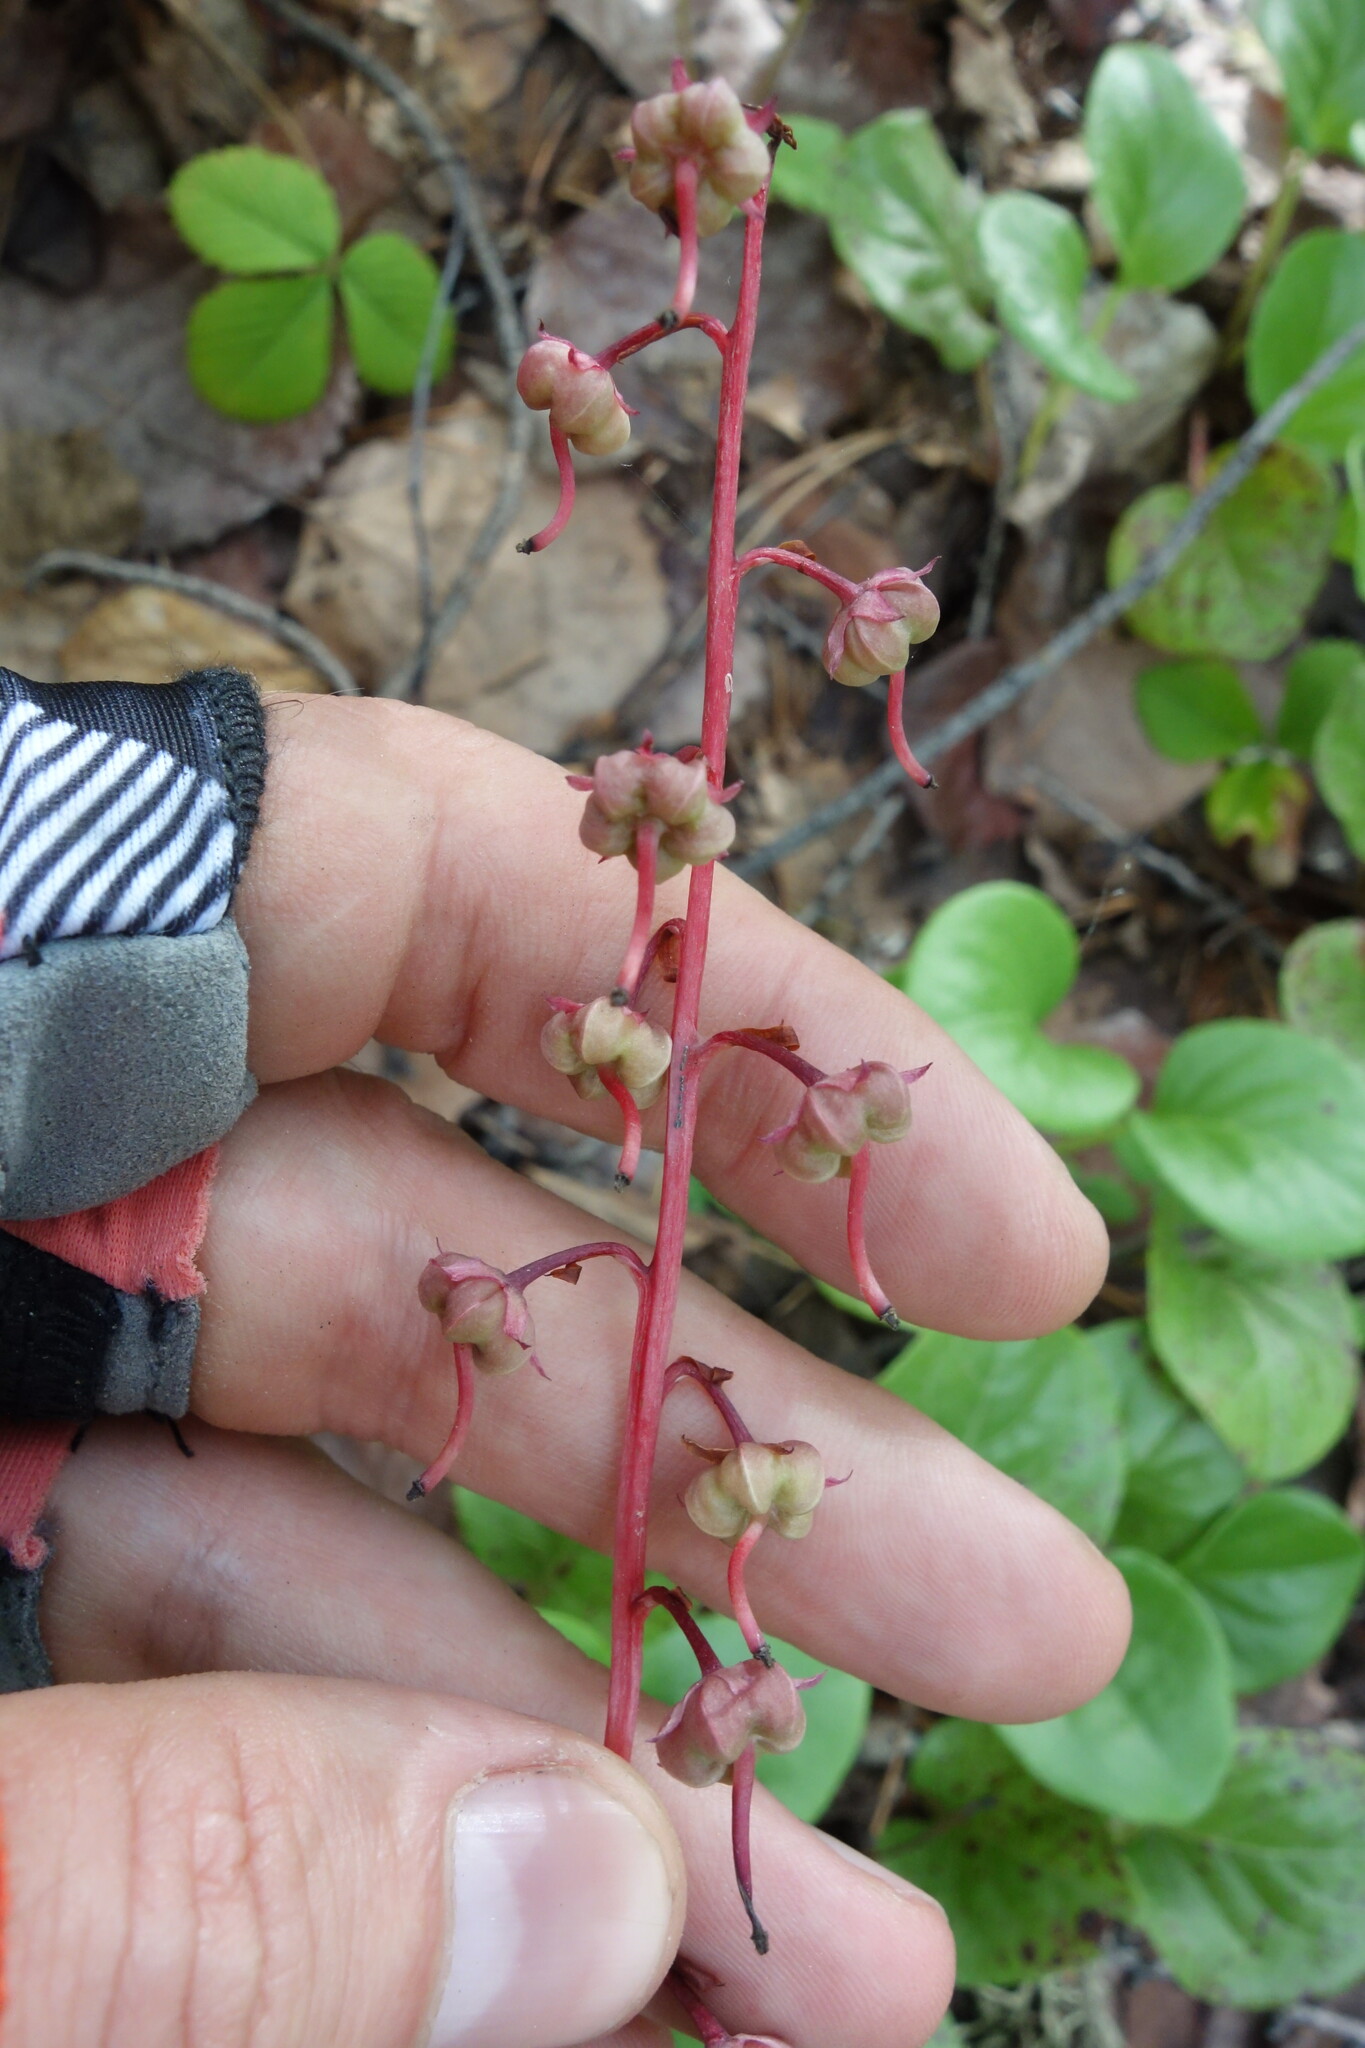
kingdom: Plantae
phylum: Tracheophyta
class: Magnoliopsida
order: Ericales
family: Ericaceae
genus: Pyrola
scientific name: Pyrola asarifolia
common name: Bog wintergreen
